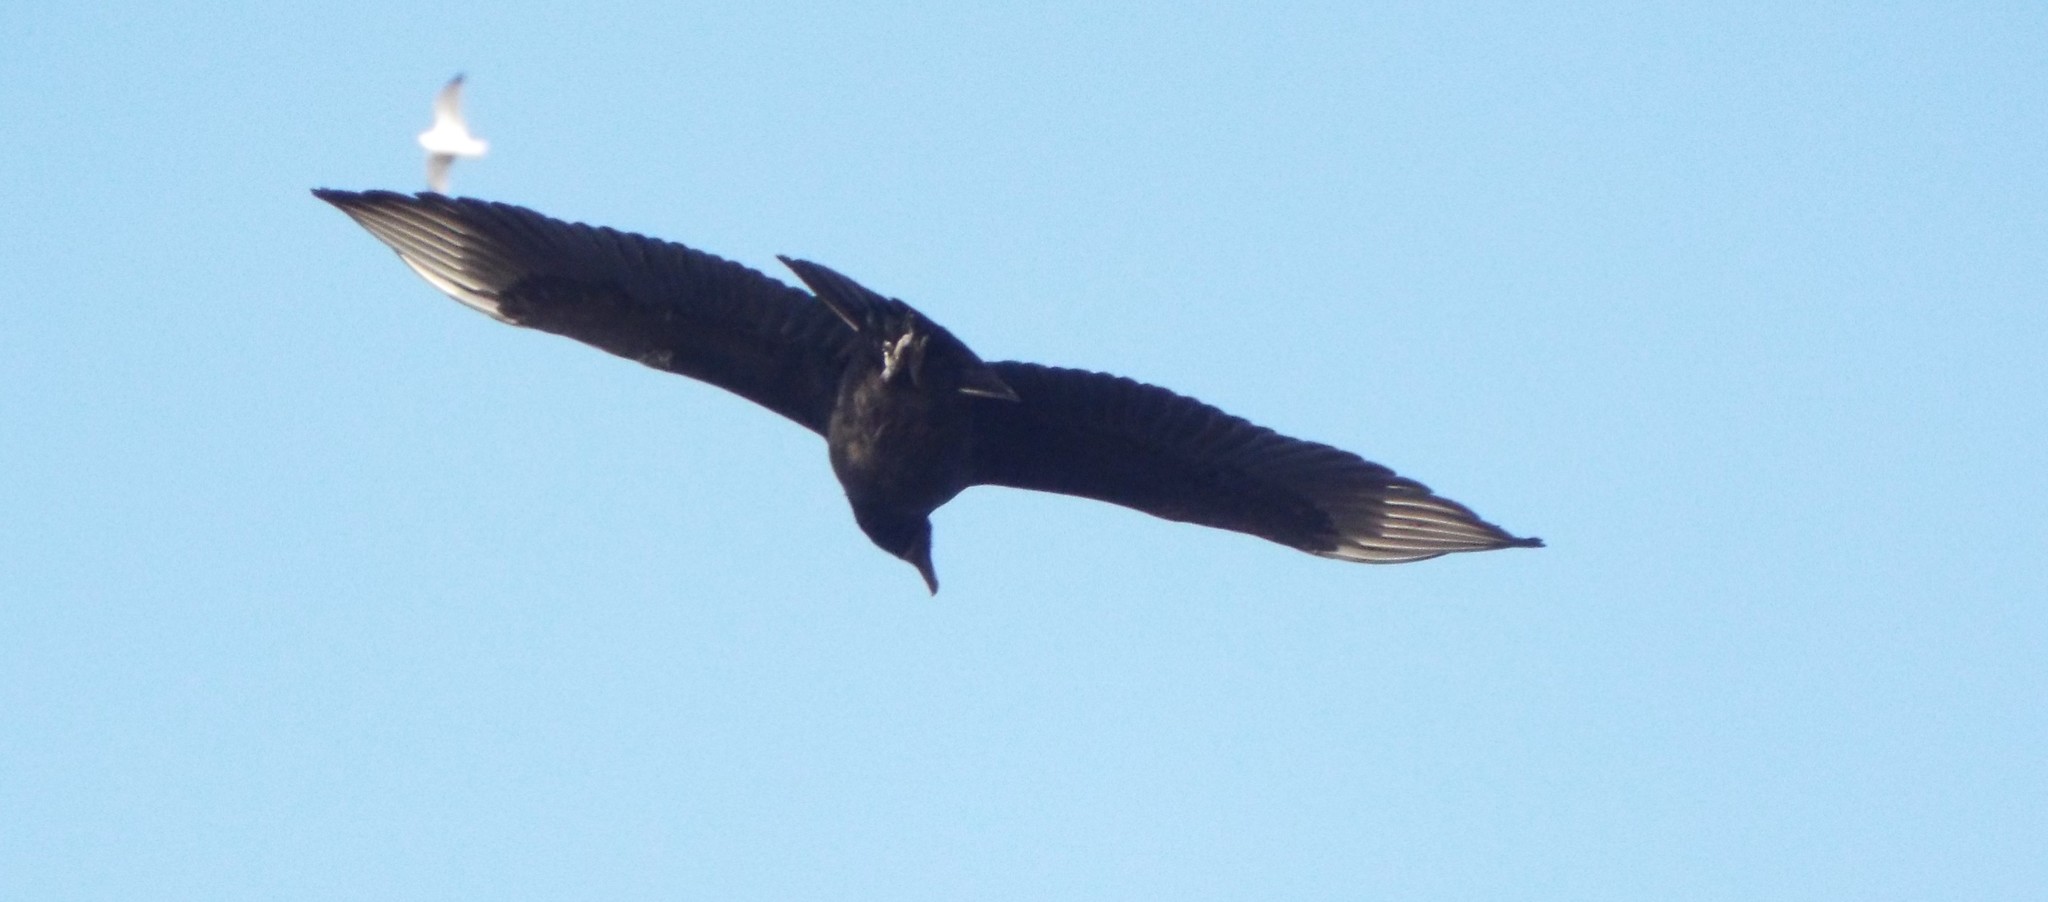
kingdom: Animalia
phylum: Chordata
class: Aves
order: Accipitriformes
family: Cathartidae
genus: Coragyps
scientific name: Coragyps atratus
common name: Black vulture
